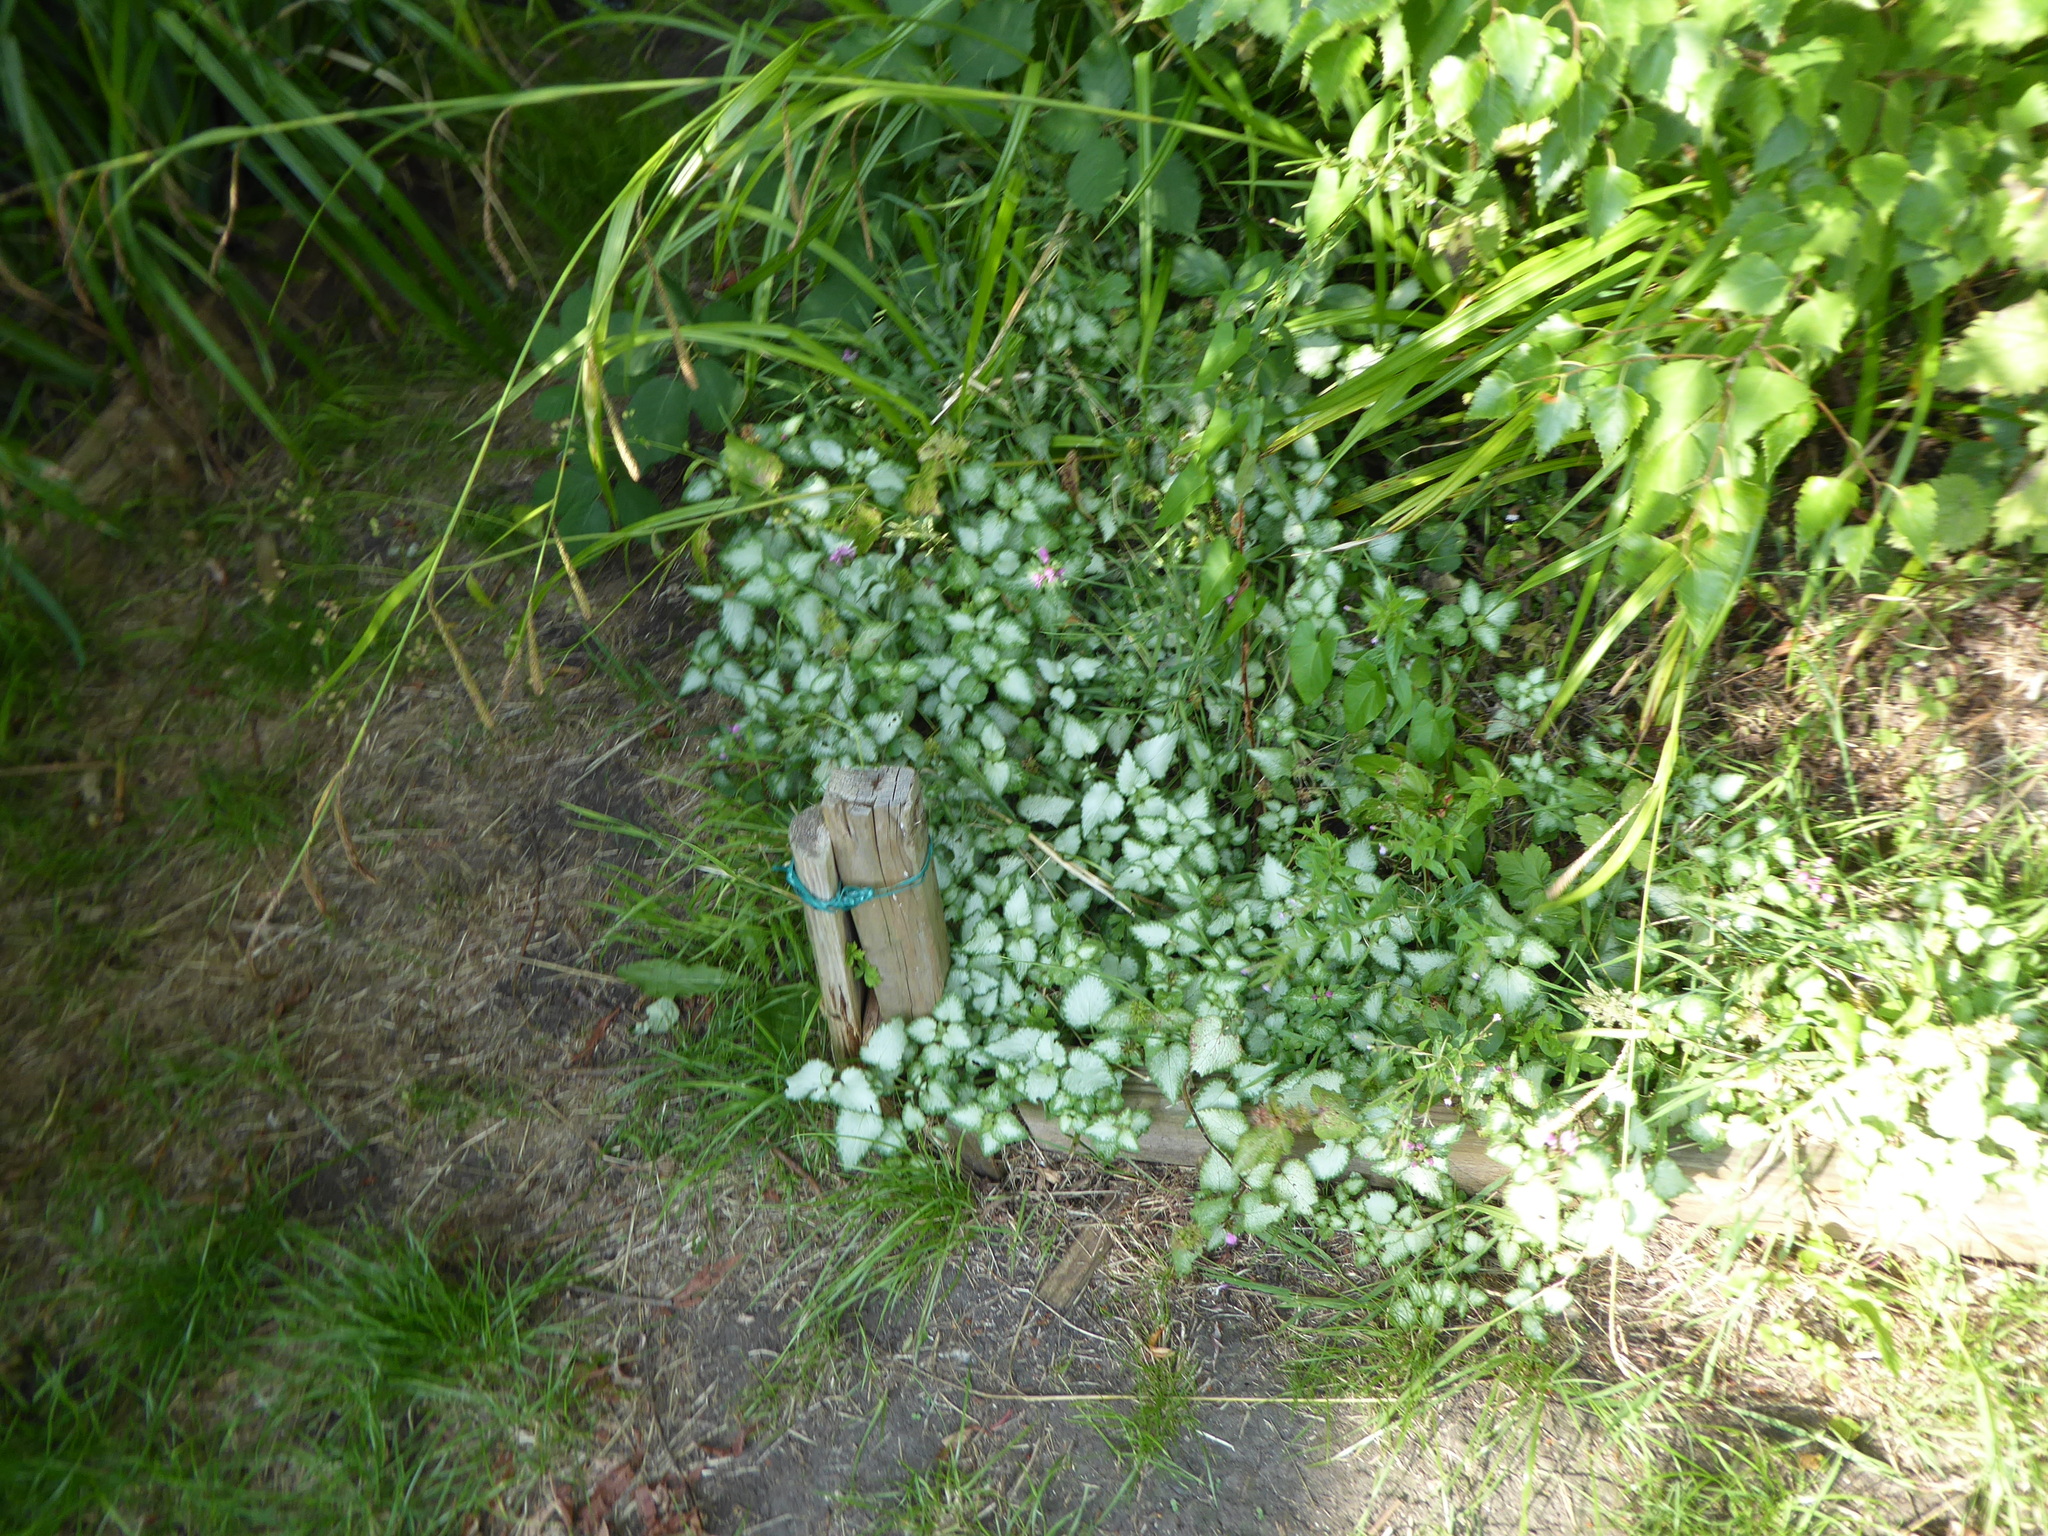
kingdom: Plantae
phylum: Tracheophyta
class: Magnoliopsida
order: Lamiales
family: Lamiaceae
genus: Lamium
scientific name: Lamium maculatum
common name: Spotted dead-nettle
